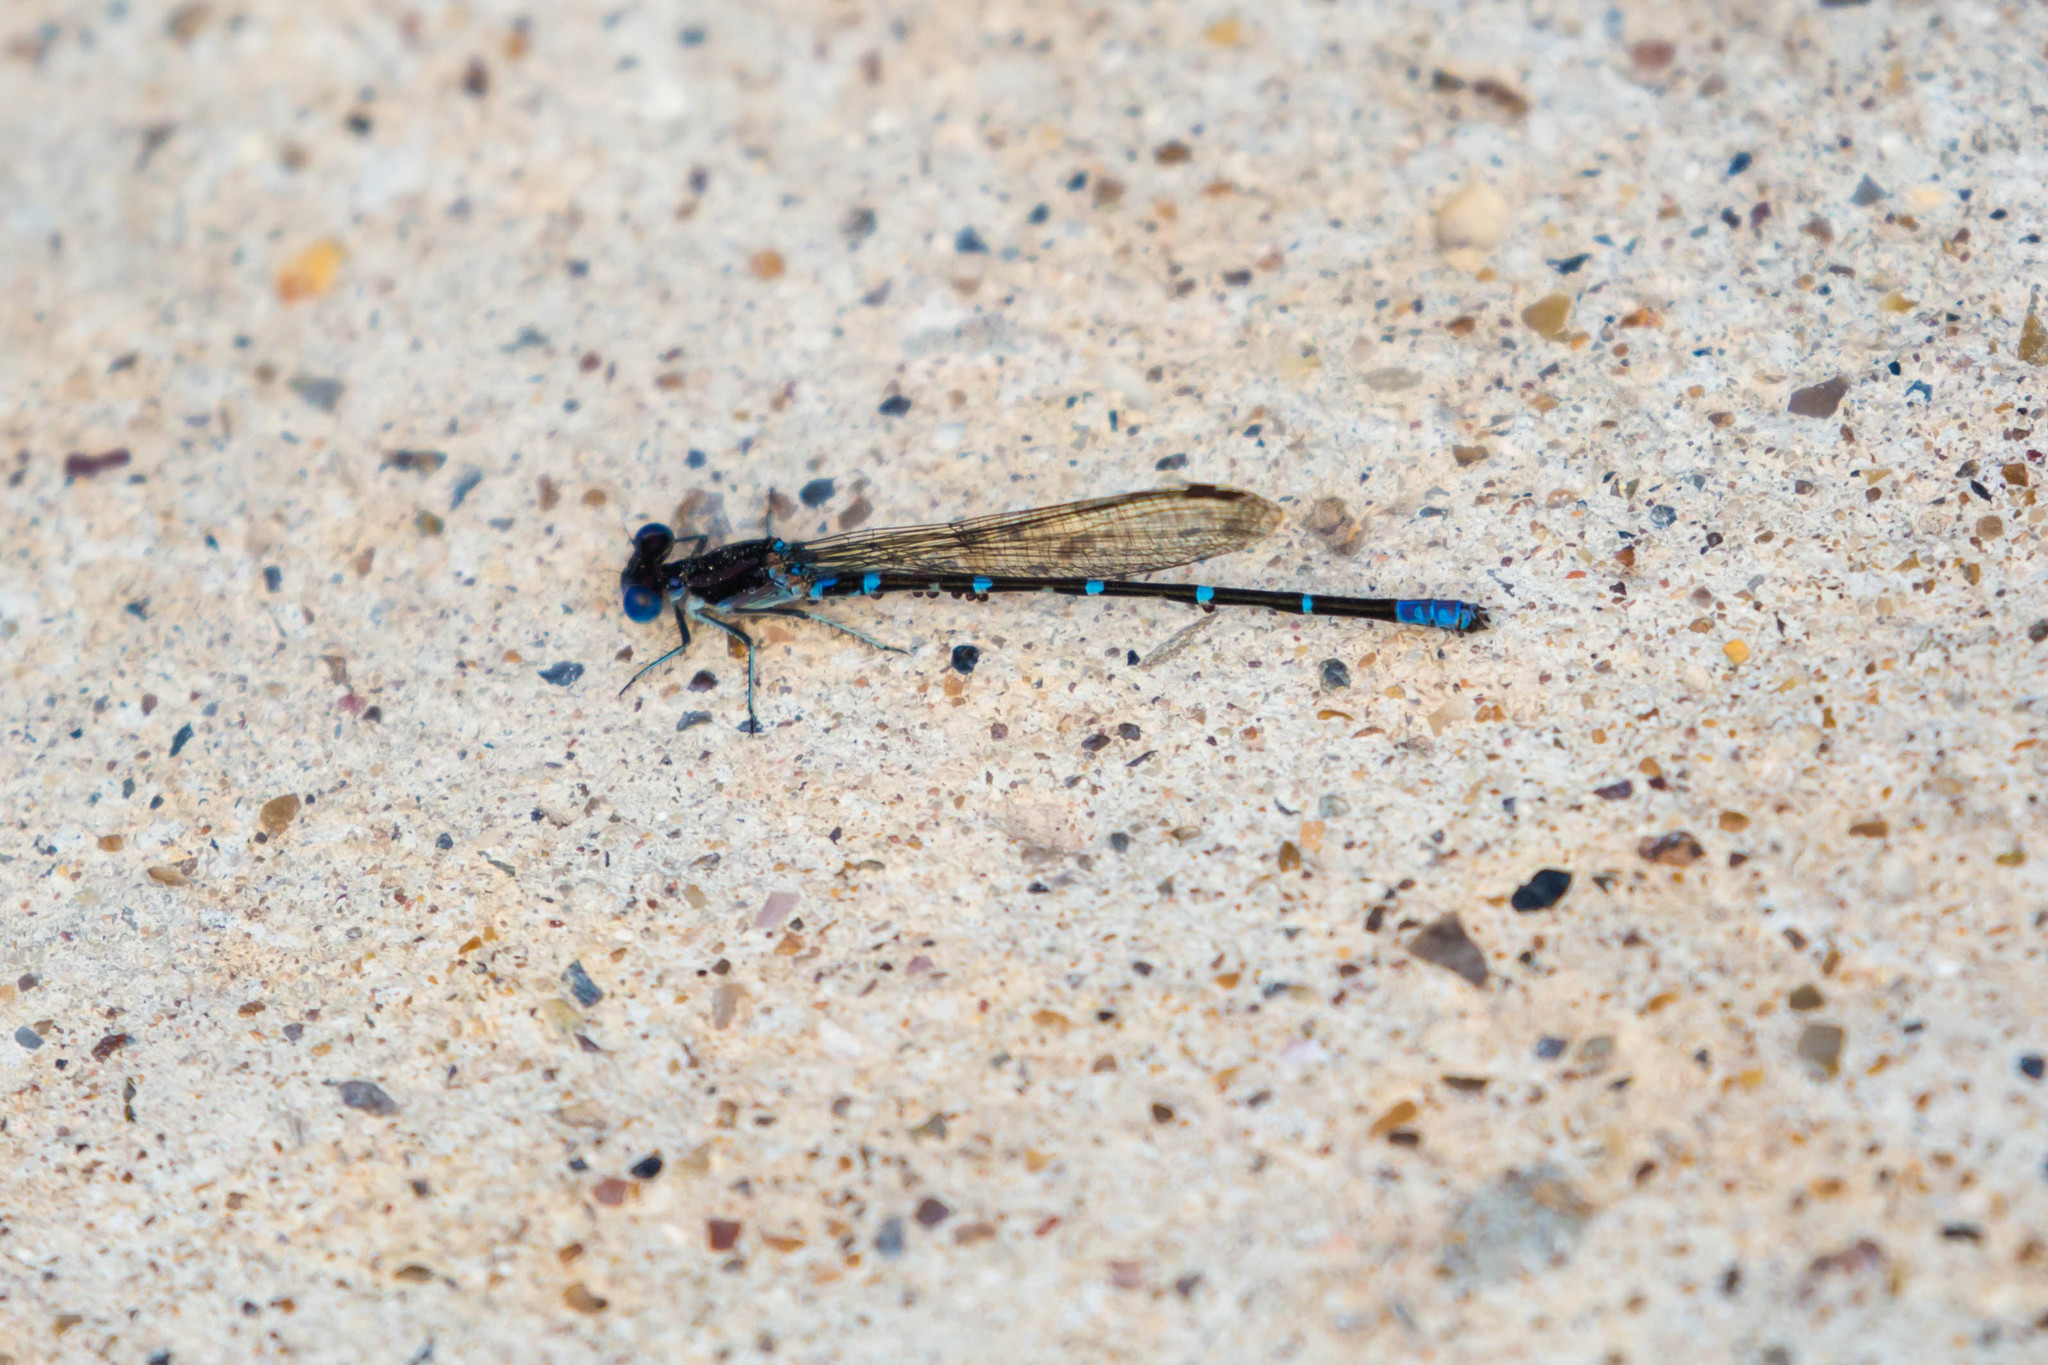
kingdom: Animalia
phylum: Arthropoda
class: Insecta
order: Odonata
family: Coenagrionidae
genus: Argia
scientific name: Argia sedula
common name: Blue-ringed dancer
